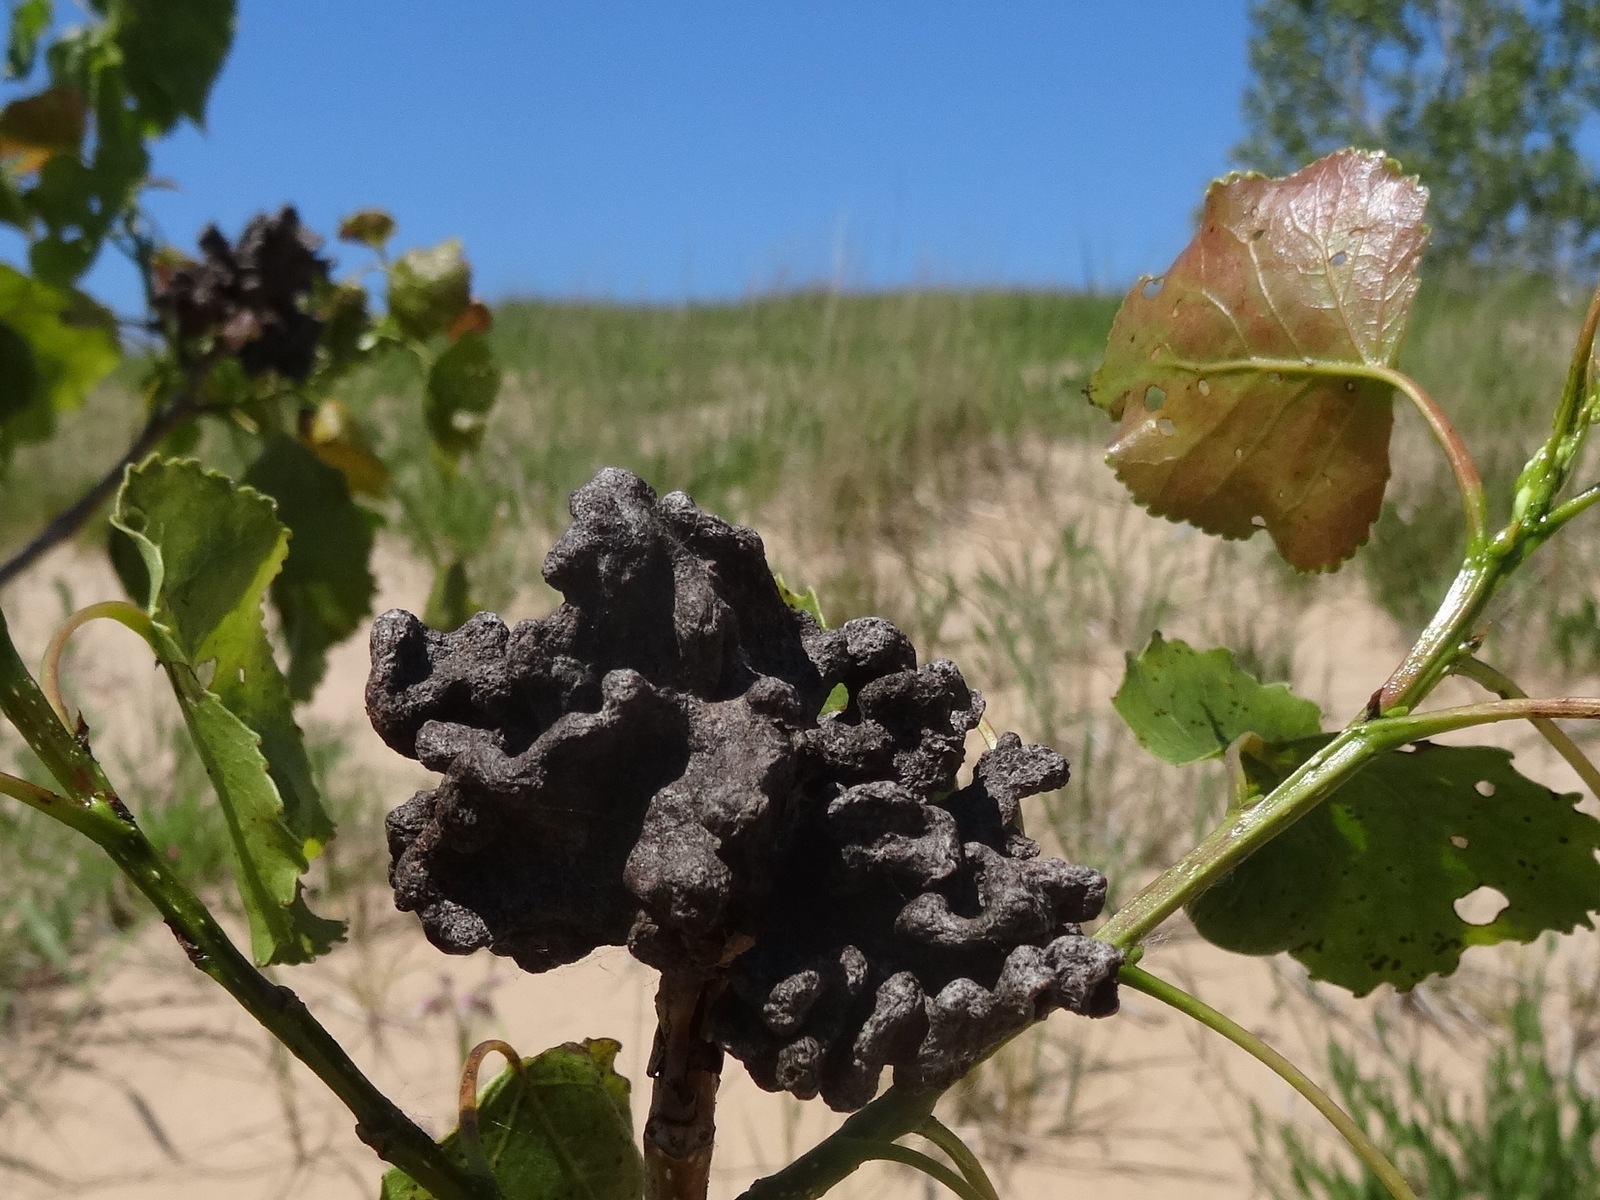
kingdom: Animalia
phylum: Arthropoda
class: Insecta
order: Hemiptera
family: Aphididae
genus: Mordwilkoja
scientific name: Mordwilkoja vagabunda
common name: Poplar vagabond aphid
